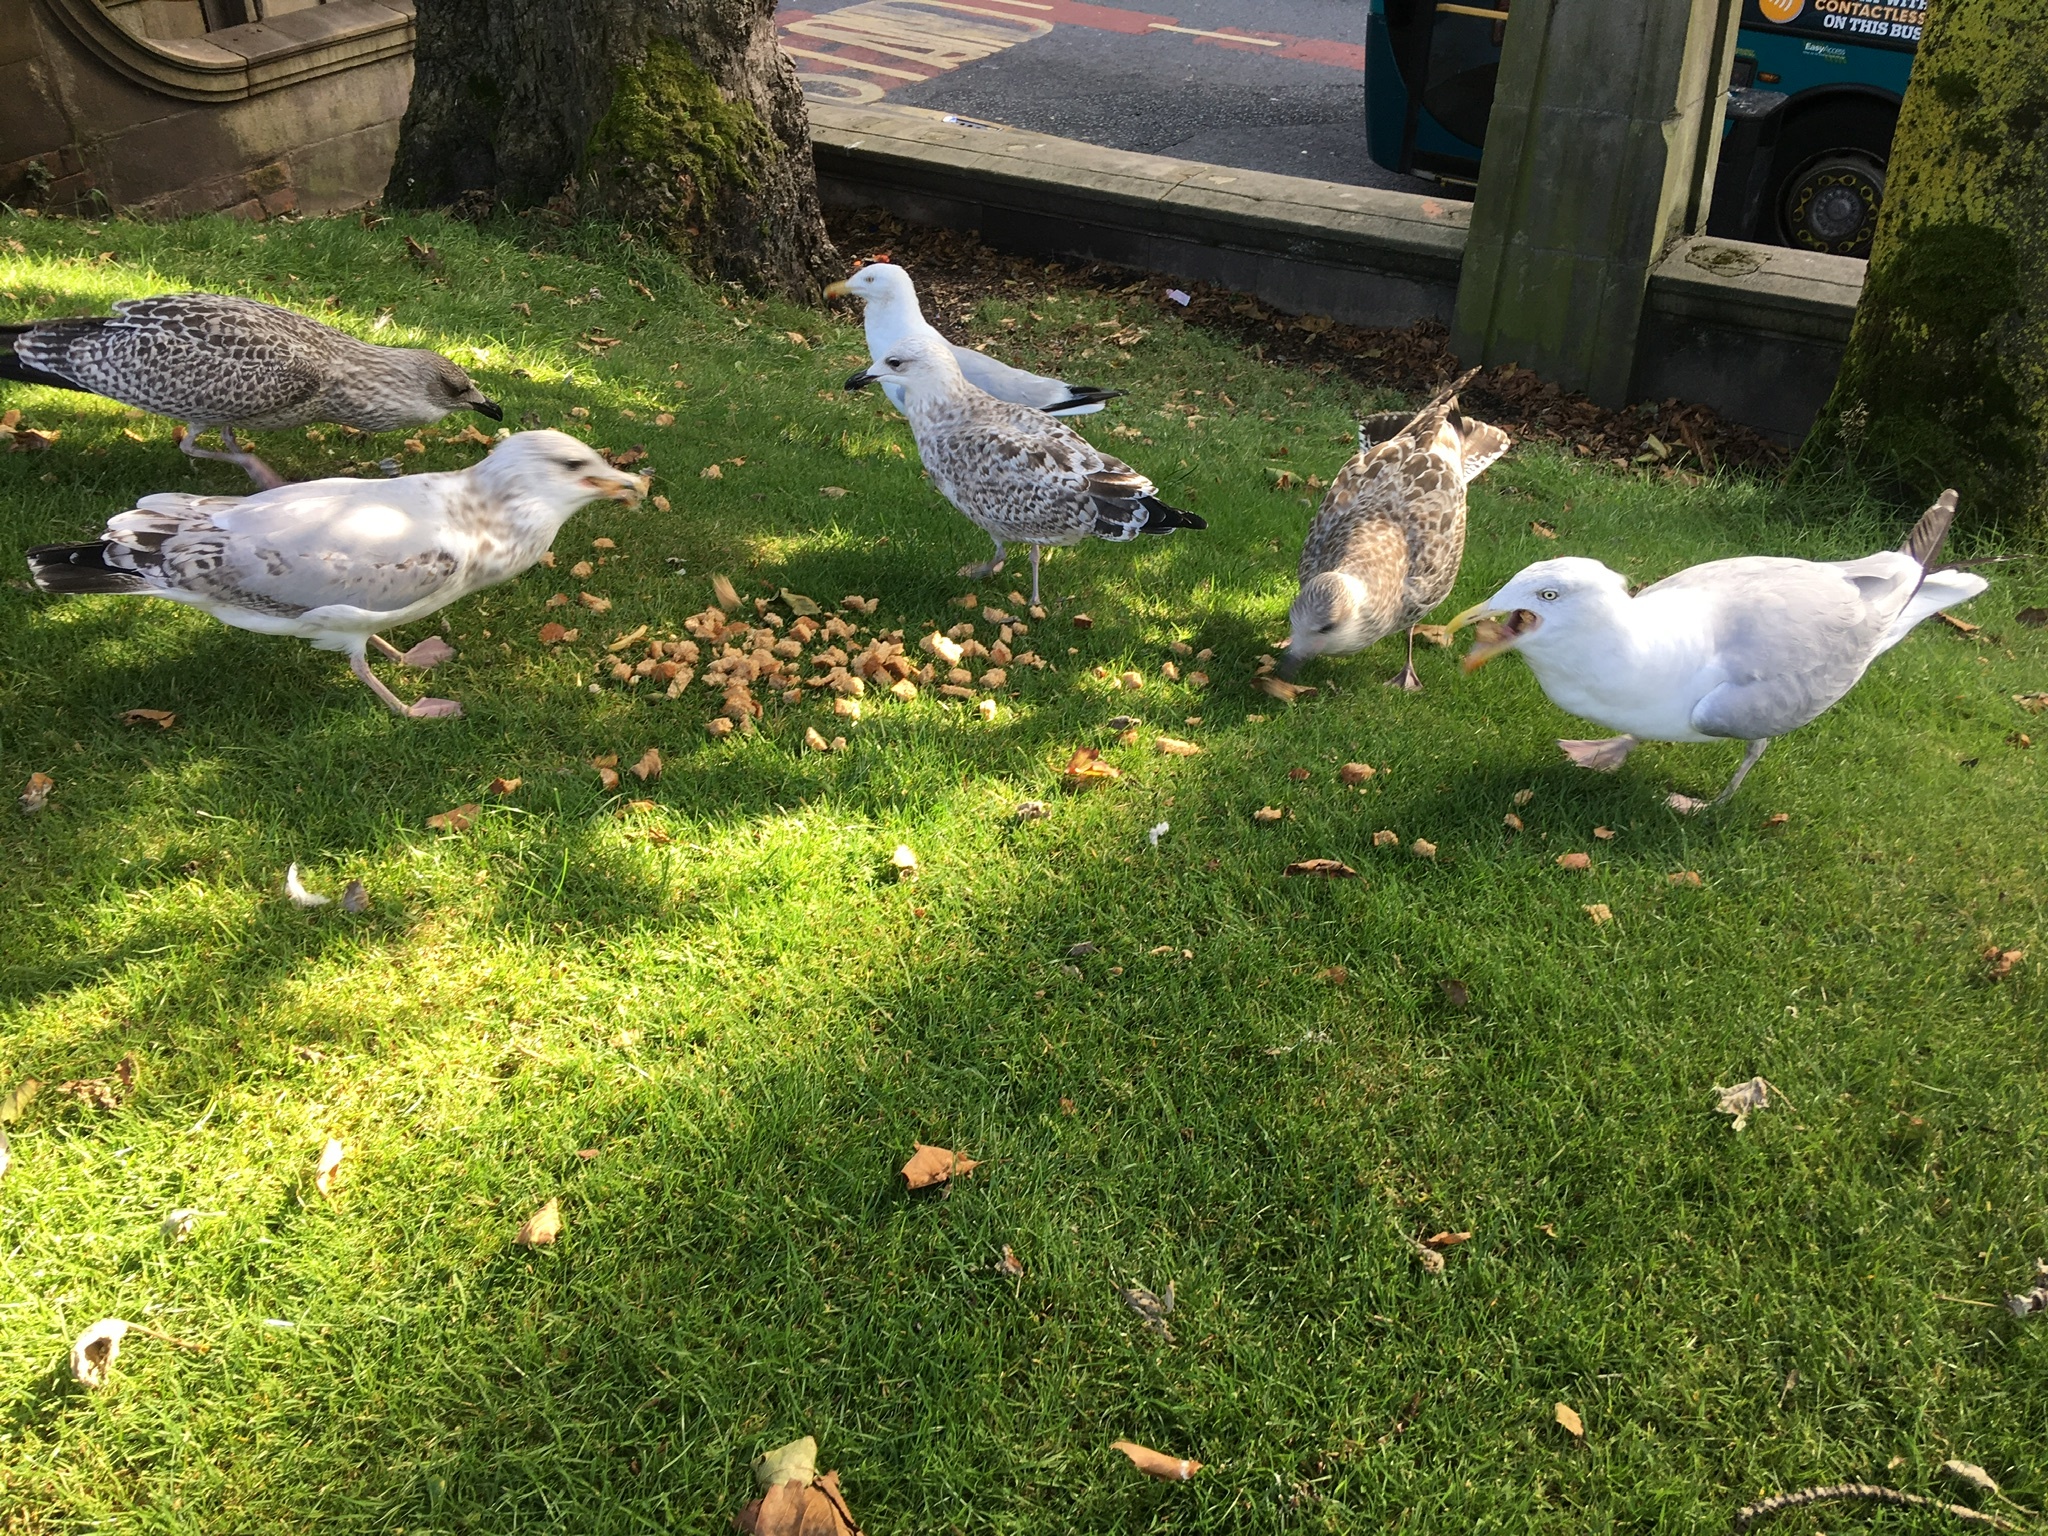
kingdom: Animalia
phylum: Chordata
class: Aves
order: Charadriiformes
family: Laridae
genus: Larus
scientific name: Larus argentatus
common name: Herring gull
